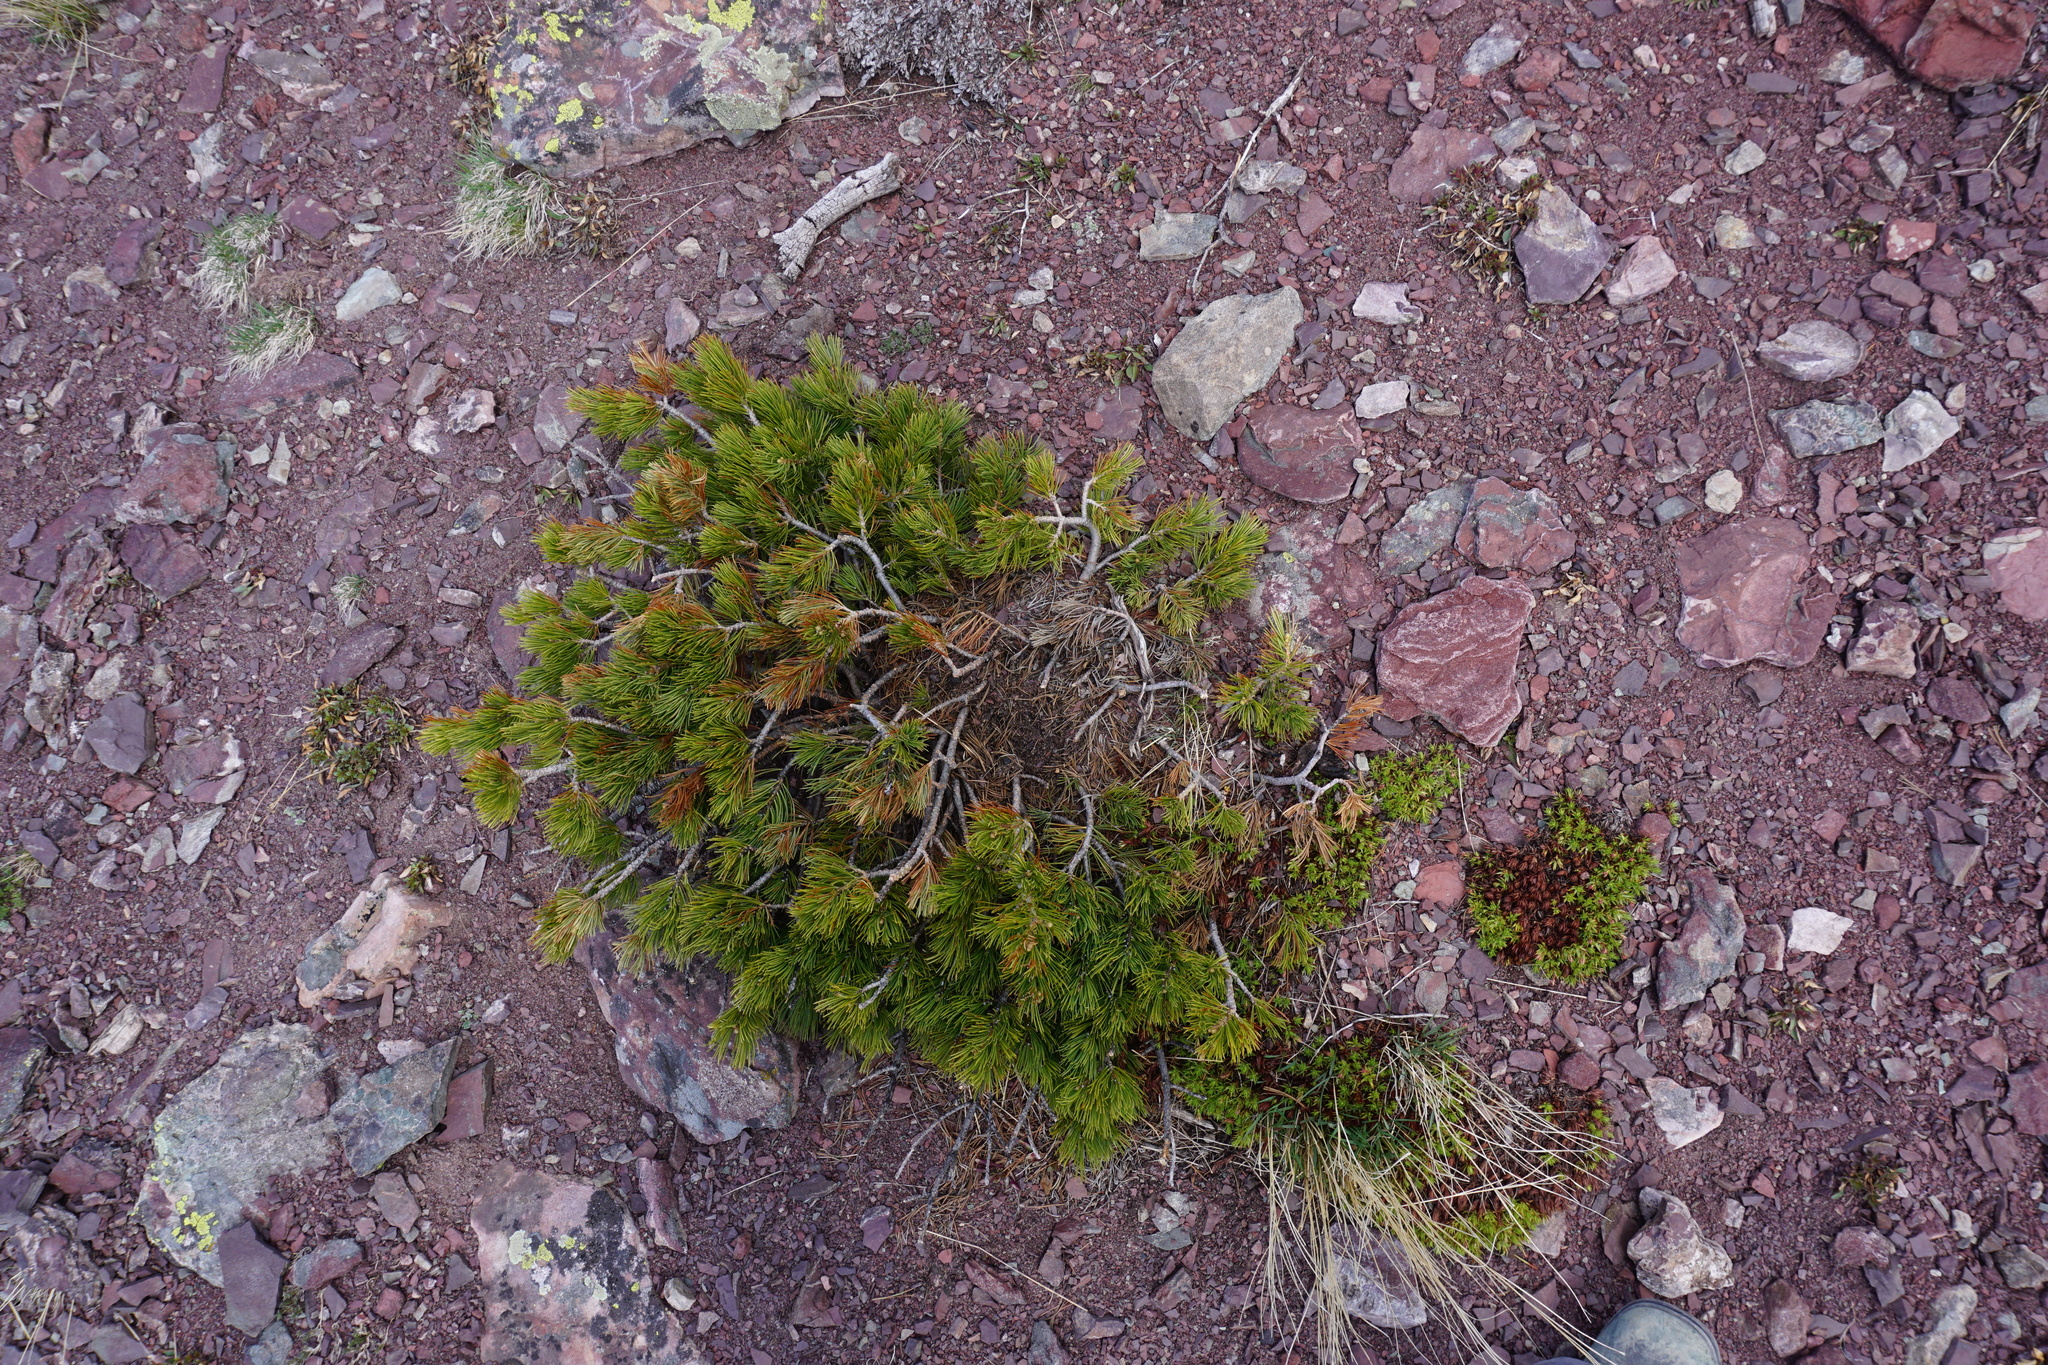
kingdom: Plantae
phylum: Tracheophyta
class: Pinopsida
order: Pinales
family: Pinaceae
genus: Pinus
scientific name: Pinus flexilis
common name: Limber pine
